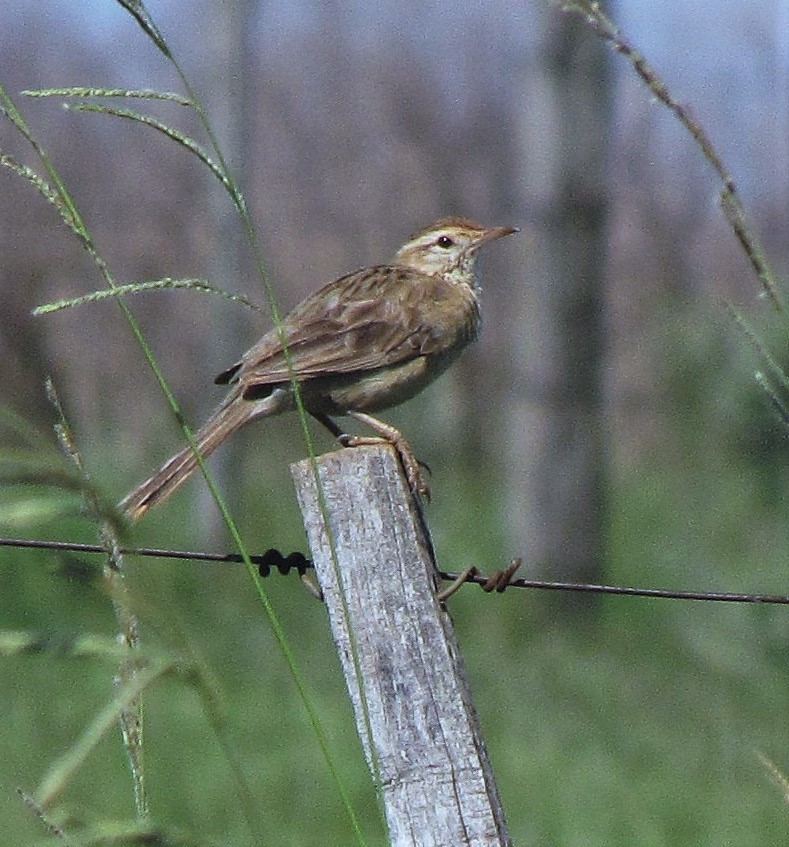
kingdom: Animalia
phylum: Chordata
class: Aves
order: Passeriformes
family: Furnariidae
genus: Anumbius
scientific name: Anumbius annumbi
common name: Firewood-gatherer
